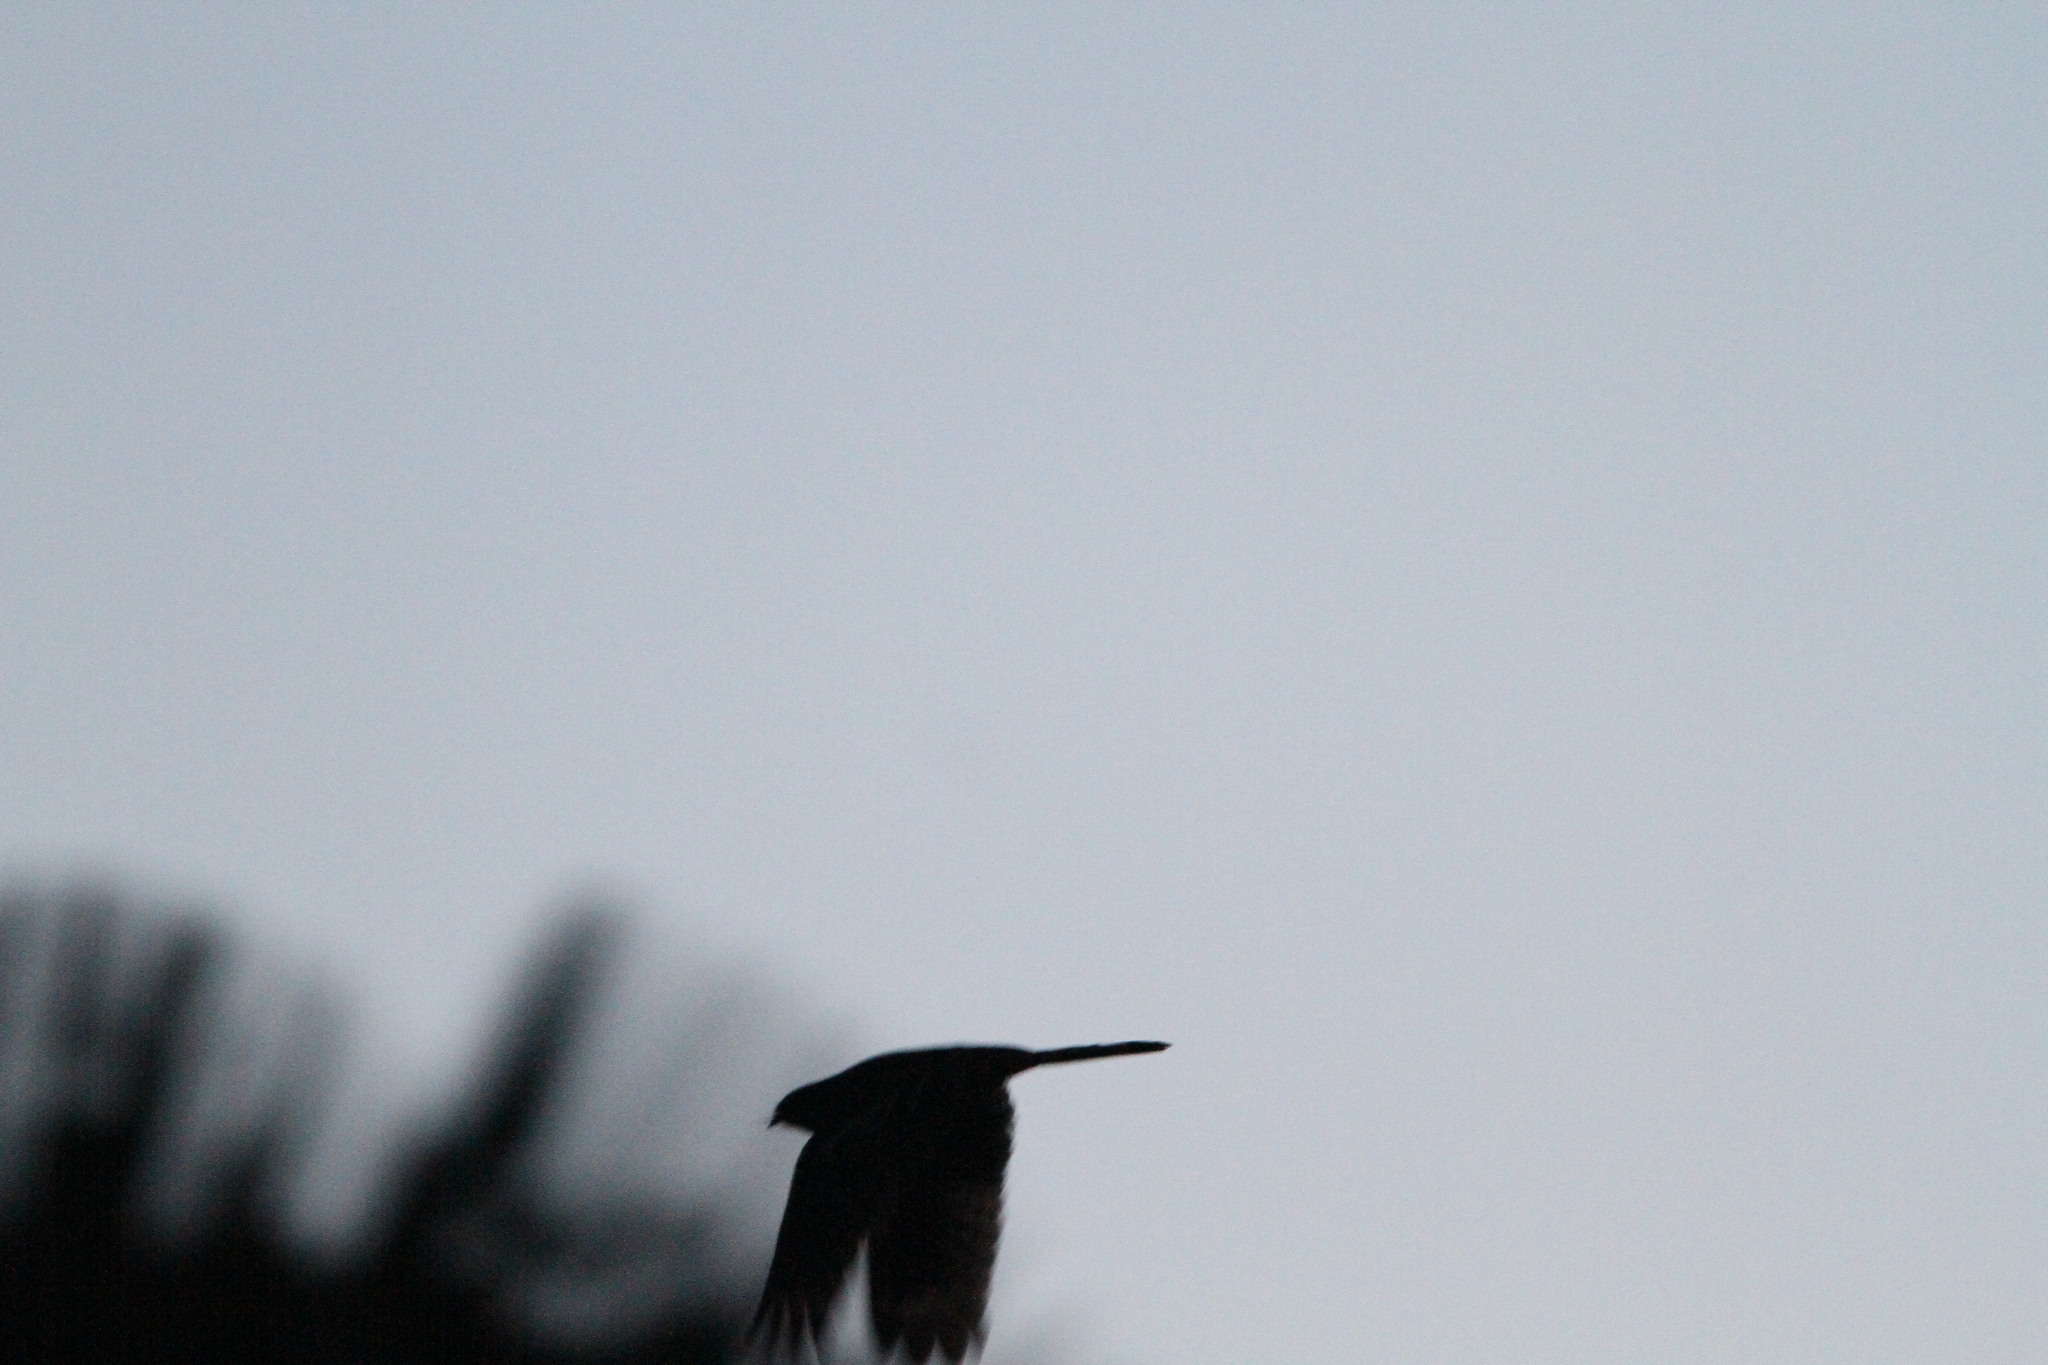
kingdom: Animalia
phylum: Chordata
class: Aves
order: Caprimulgiformes
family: Caprimulgidae
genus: Caprimulgus
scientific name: Caprimulgus macrurus
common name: Large-tailed nightjar
